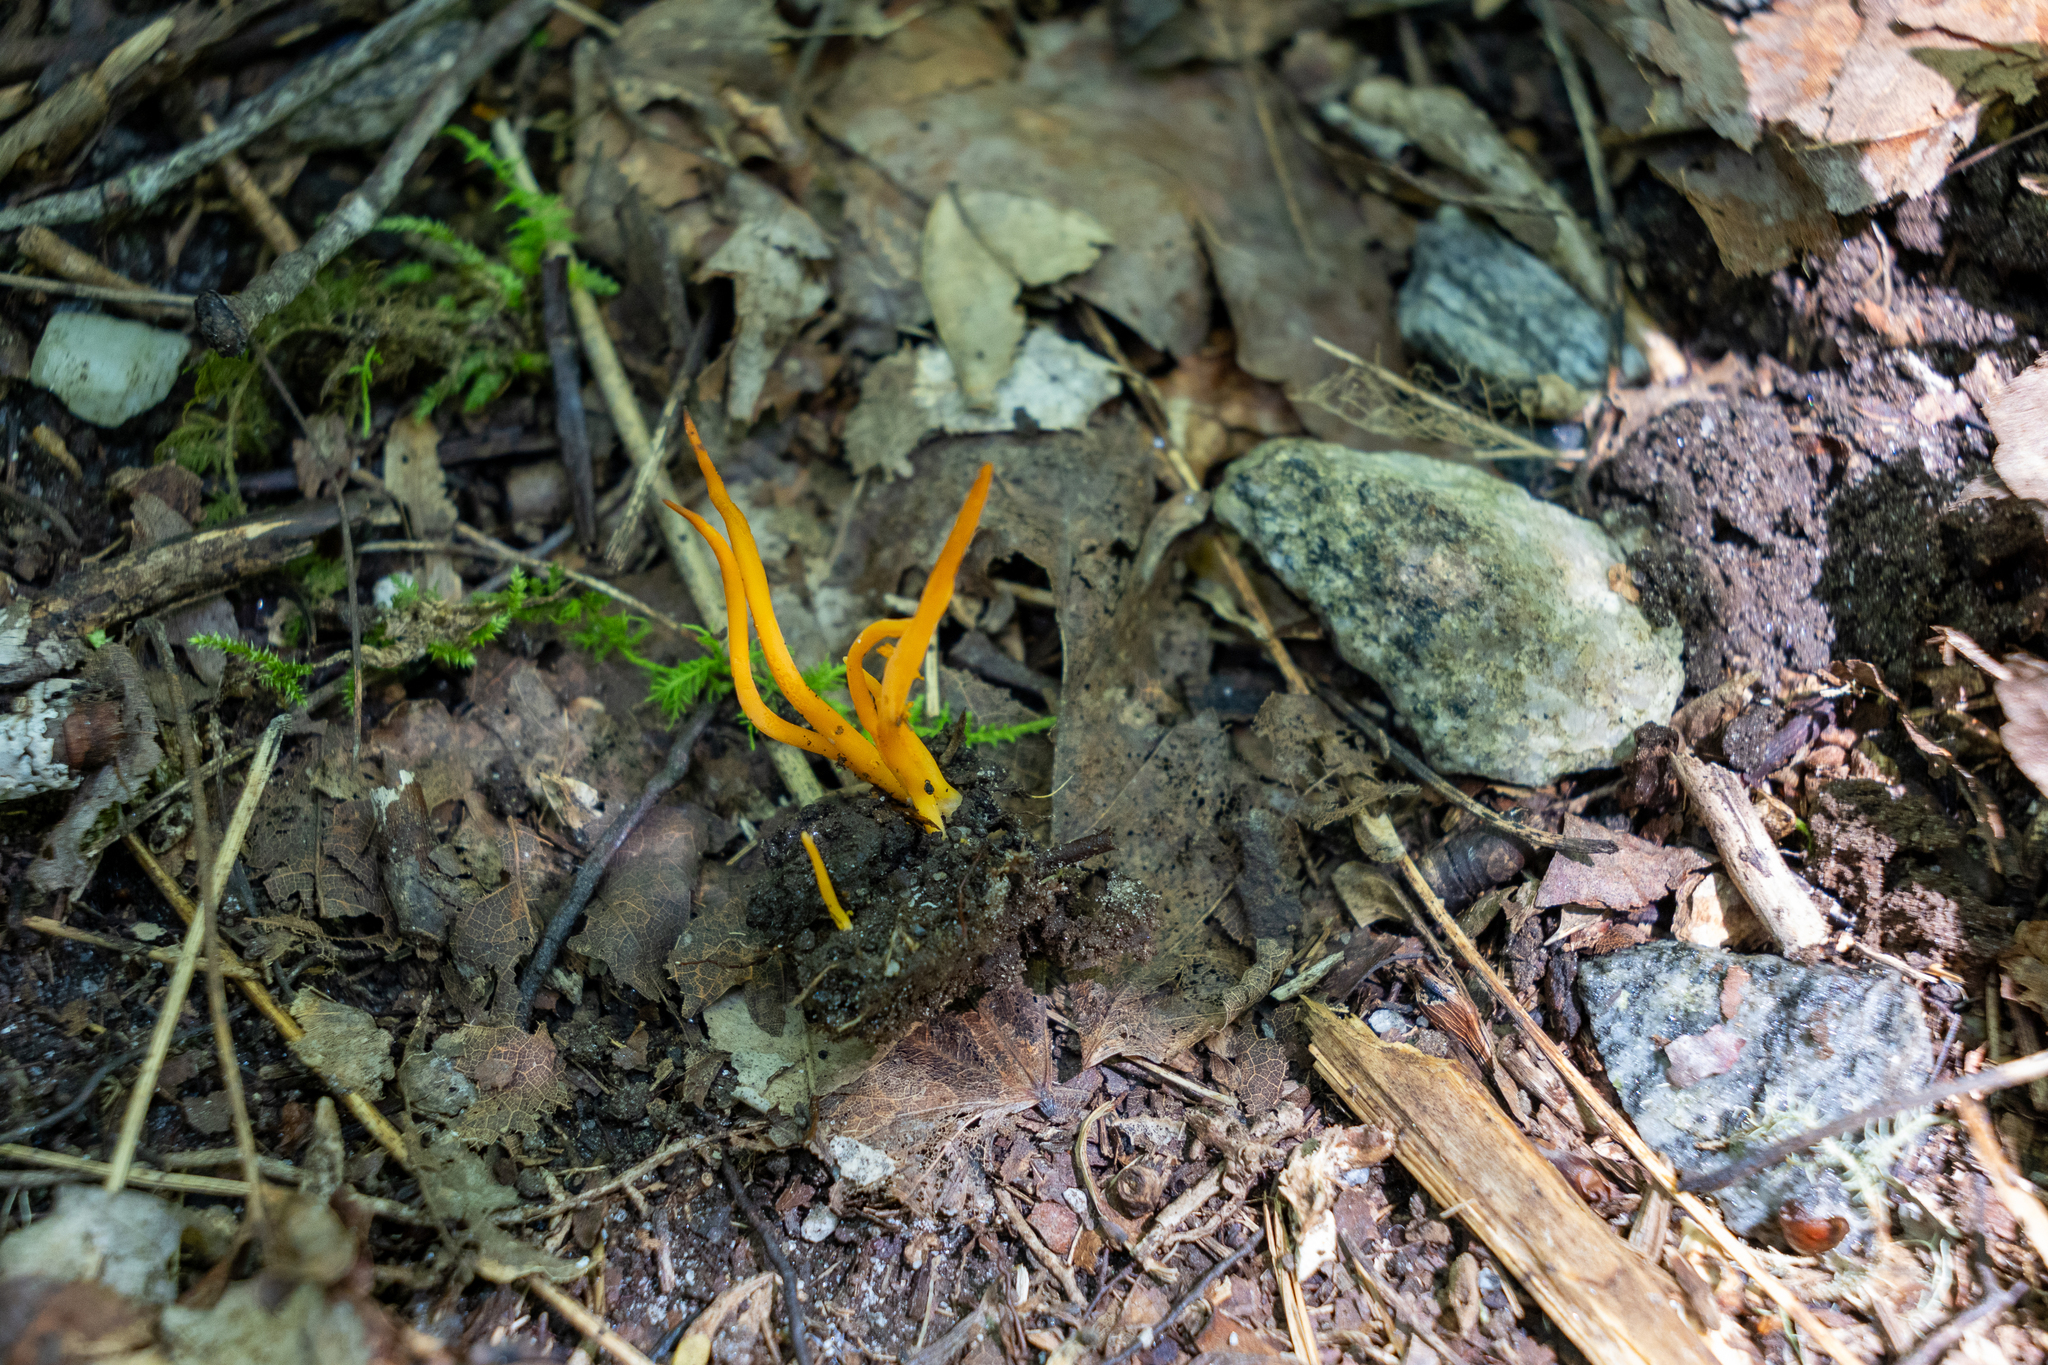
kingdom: Fungi
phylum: Basidiomycota
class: Agaricomycetes
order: Agaricales
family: Clavariaceae
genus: Clavulinopsis
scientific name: Clavulinopsis aurantiocinnabarina
